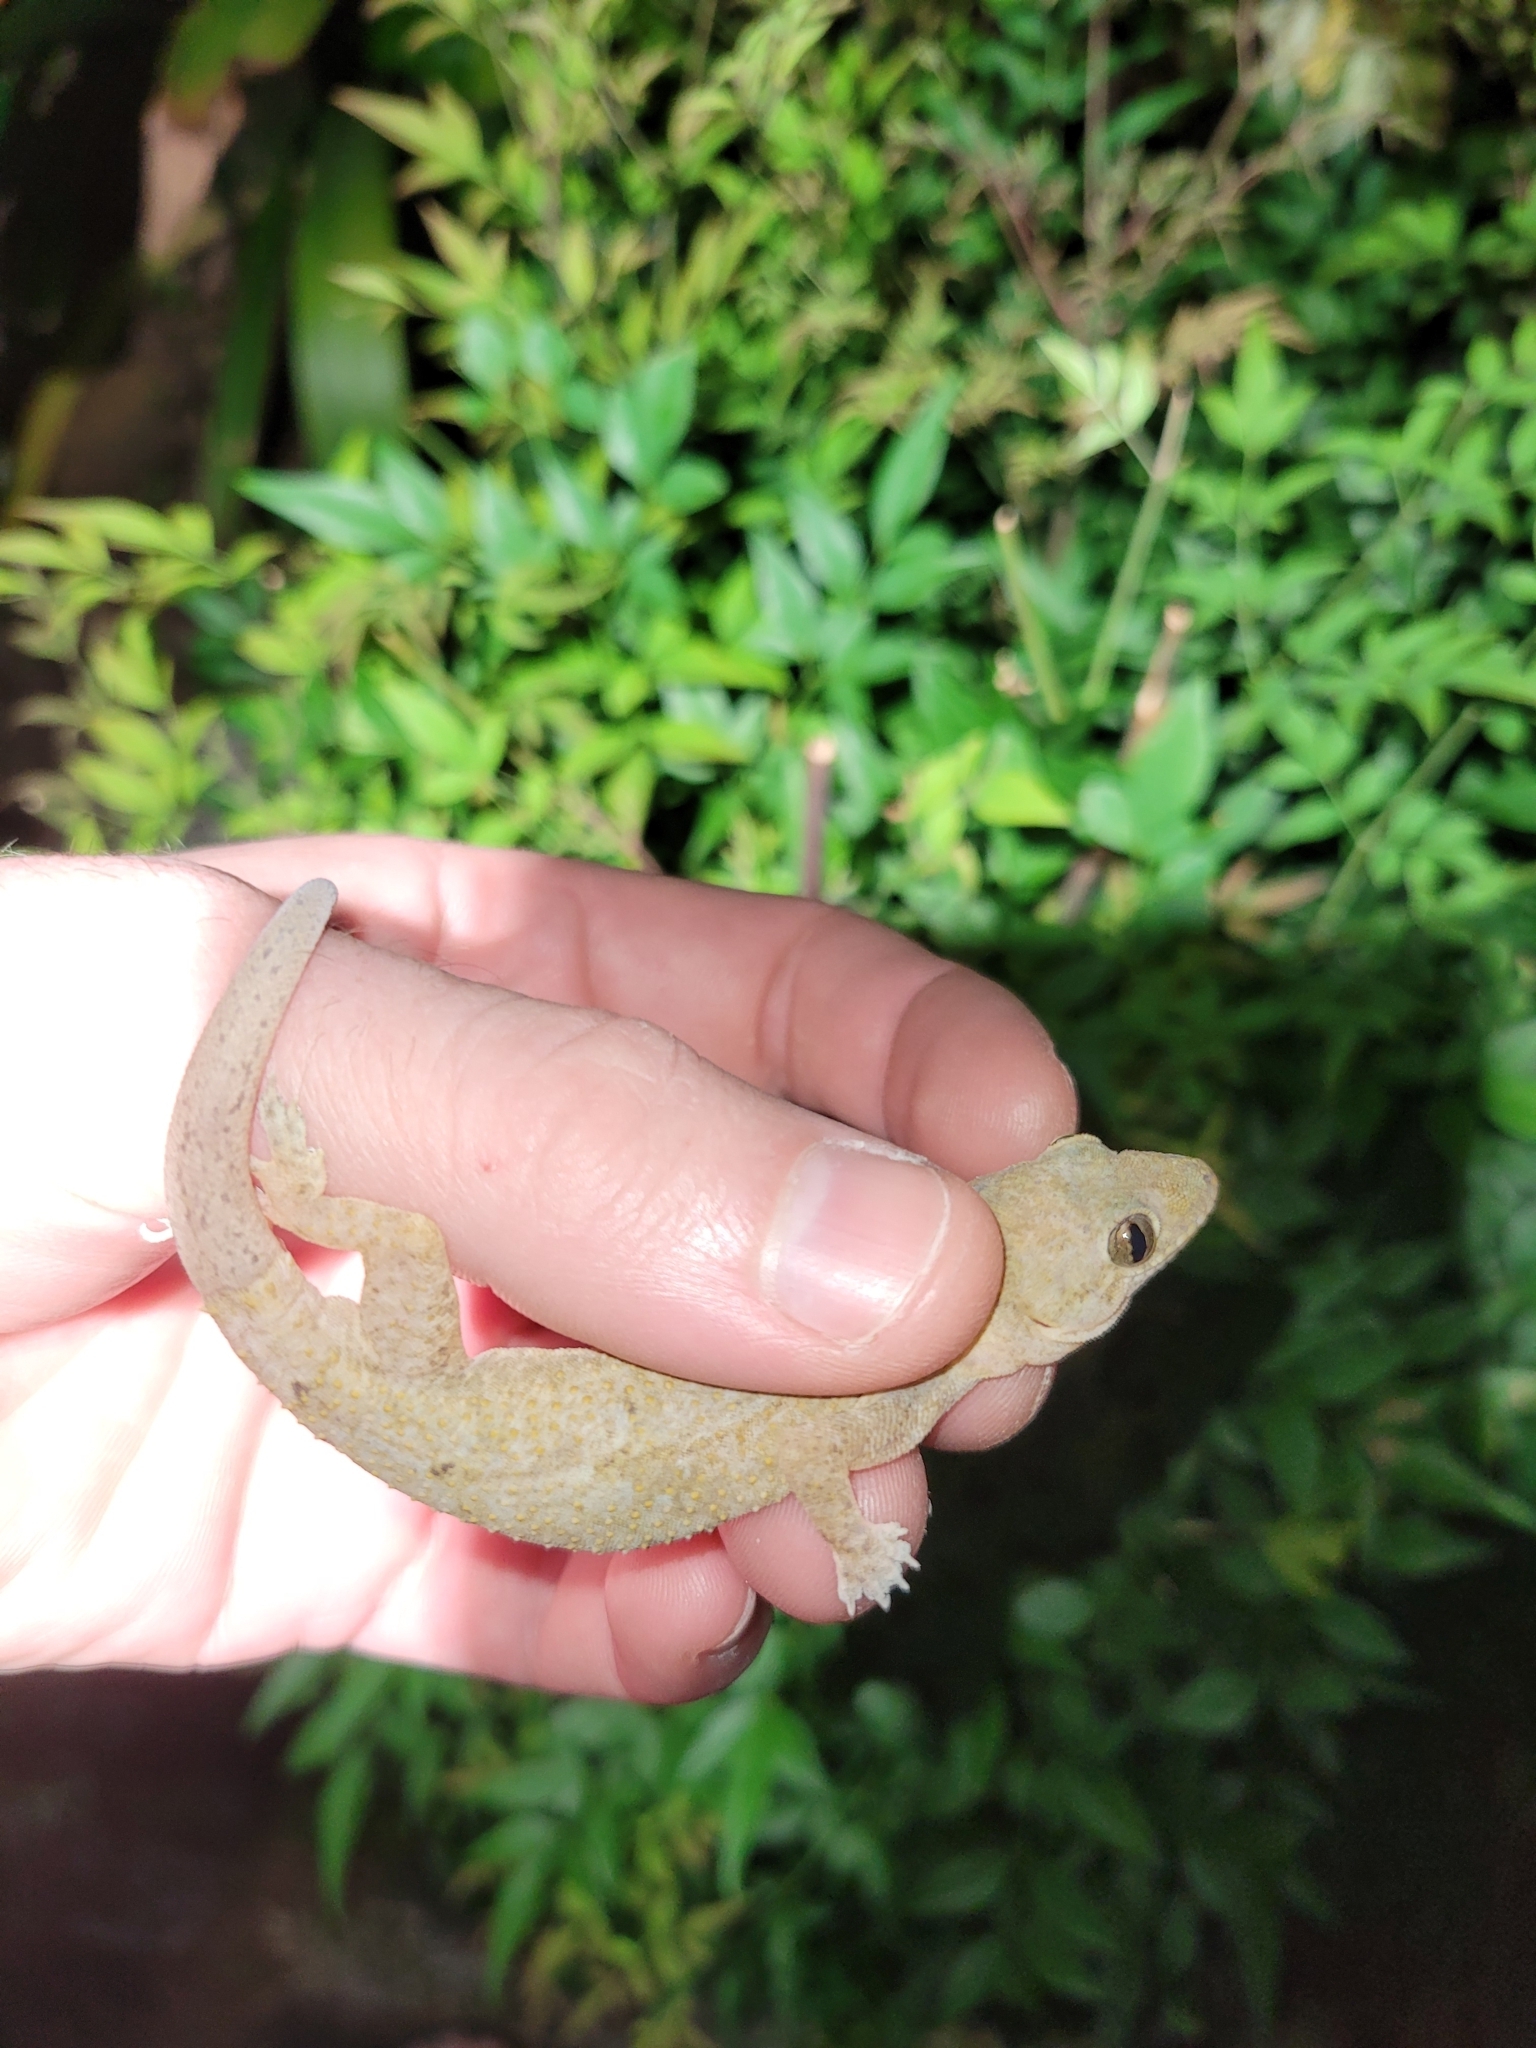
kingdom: Animalia
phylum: Chordata
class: Squamata
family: Gekkonidae
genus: Hemidactylus
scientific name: Hemidactylus mabouia
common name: House gecko
